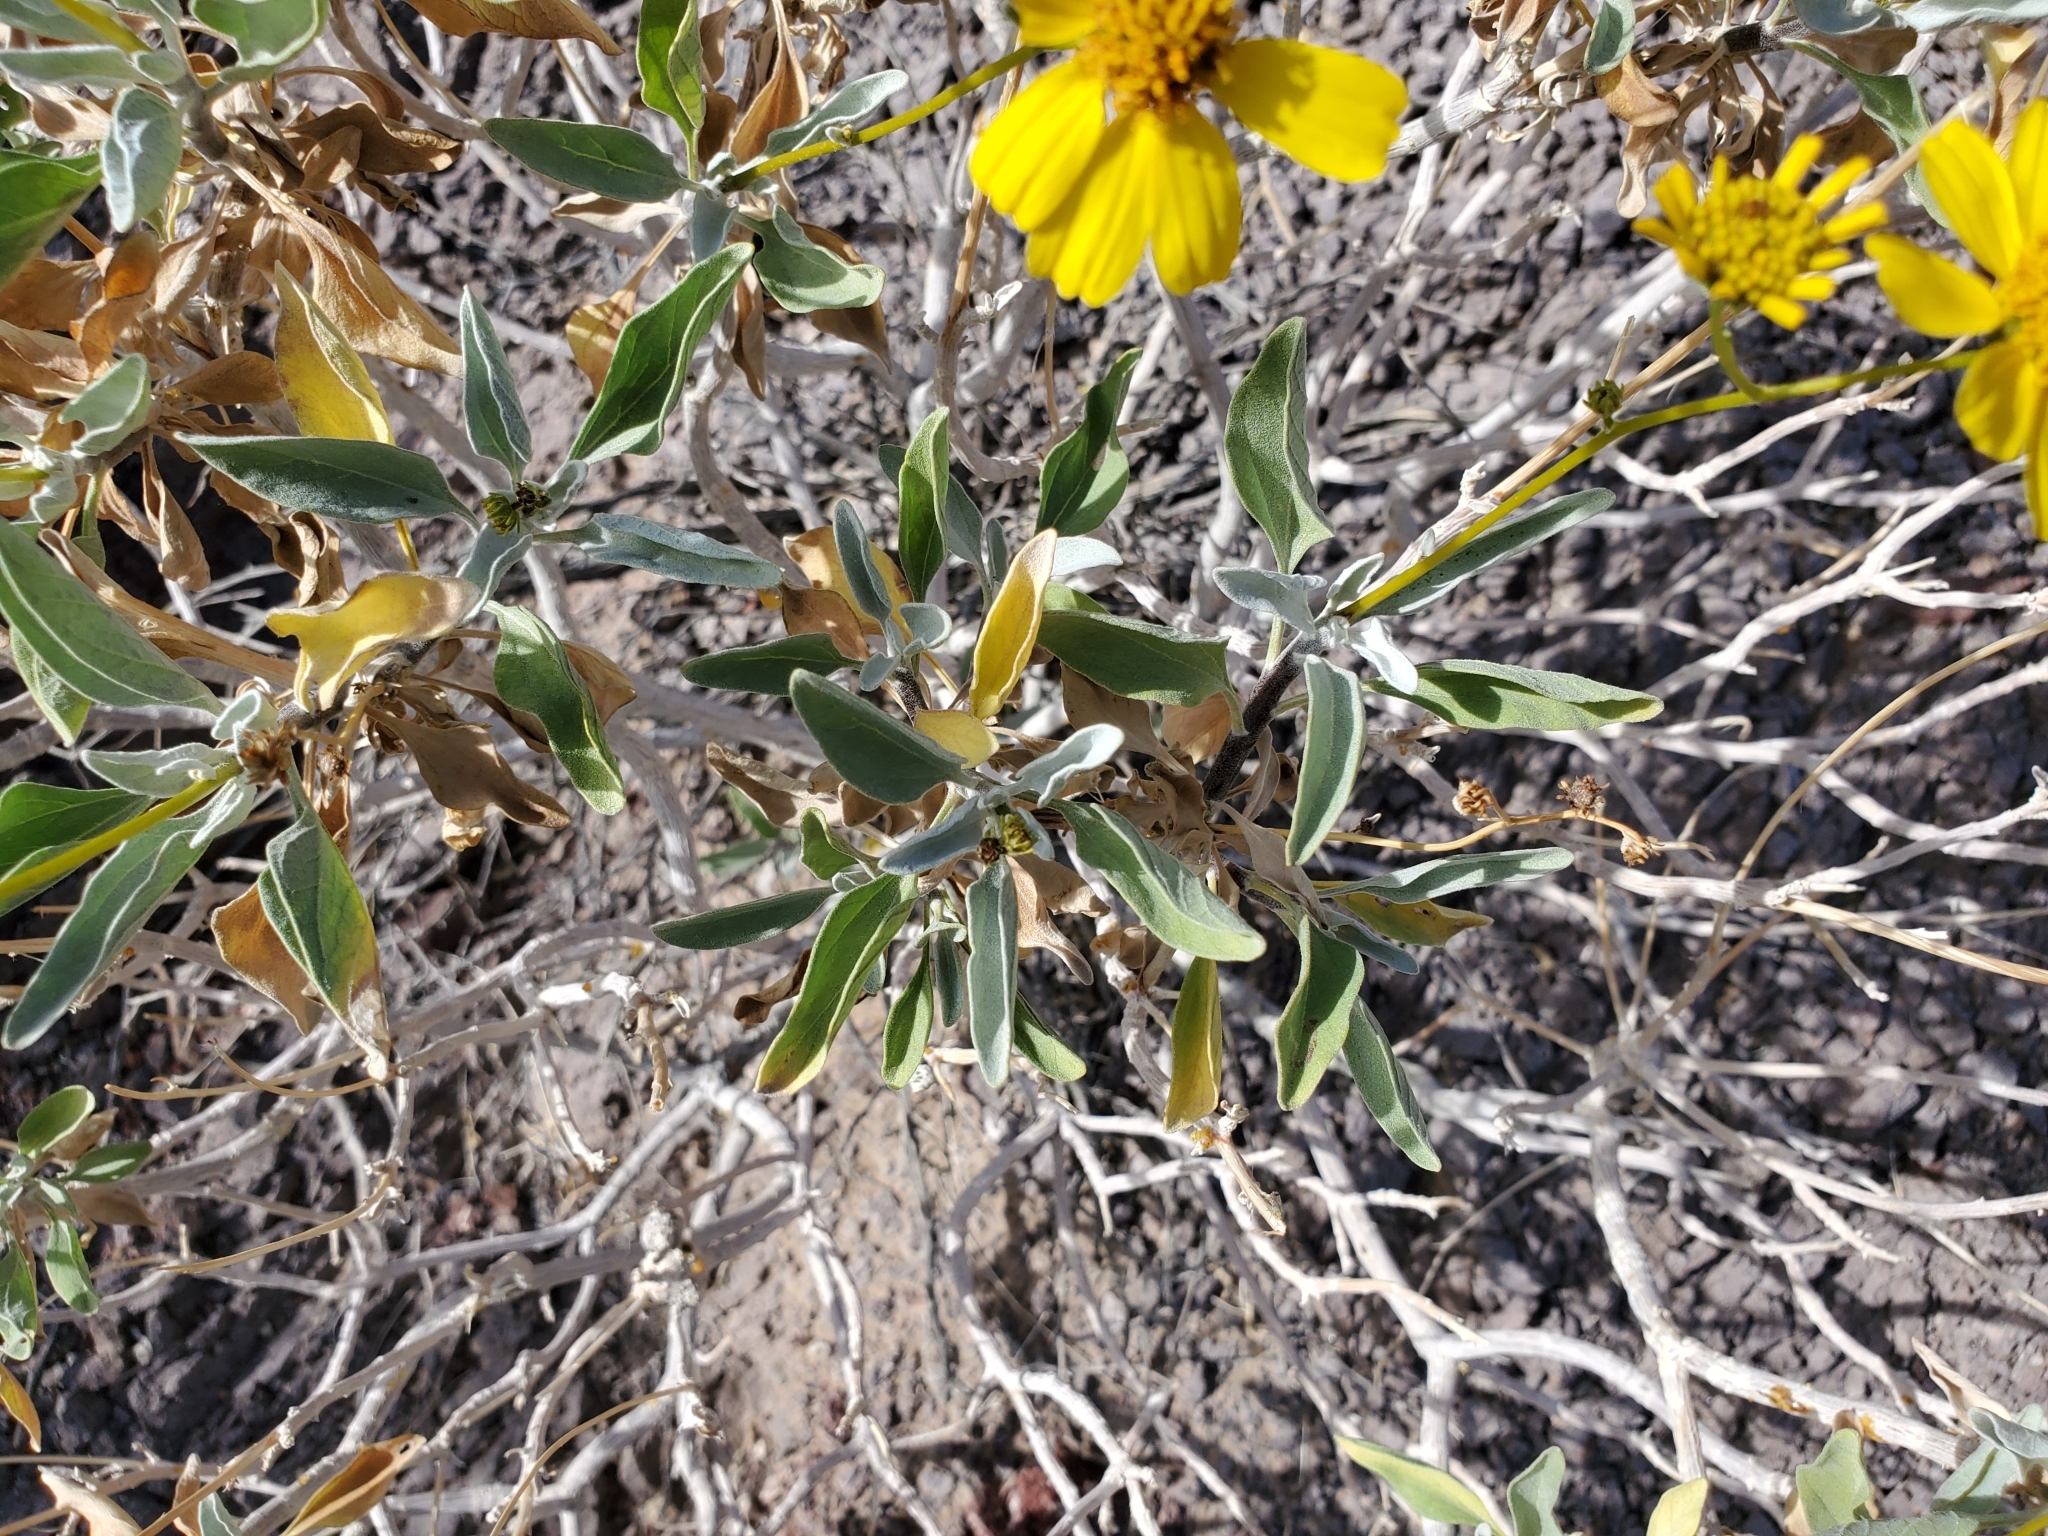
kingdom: Plantae
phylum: Tracheophyta
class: Magnoliopsida
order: Asterales
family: Asteraceae
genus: Encelia
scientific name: Encelia farinosa
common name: Brittlebush
